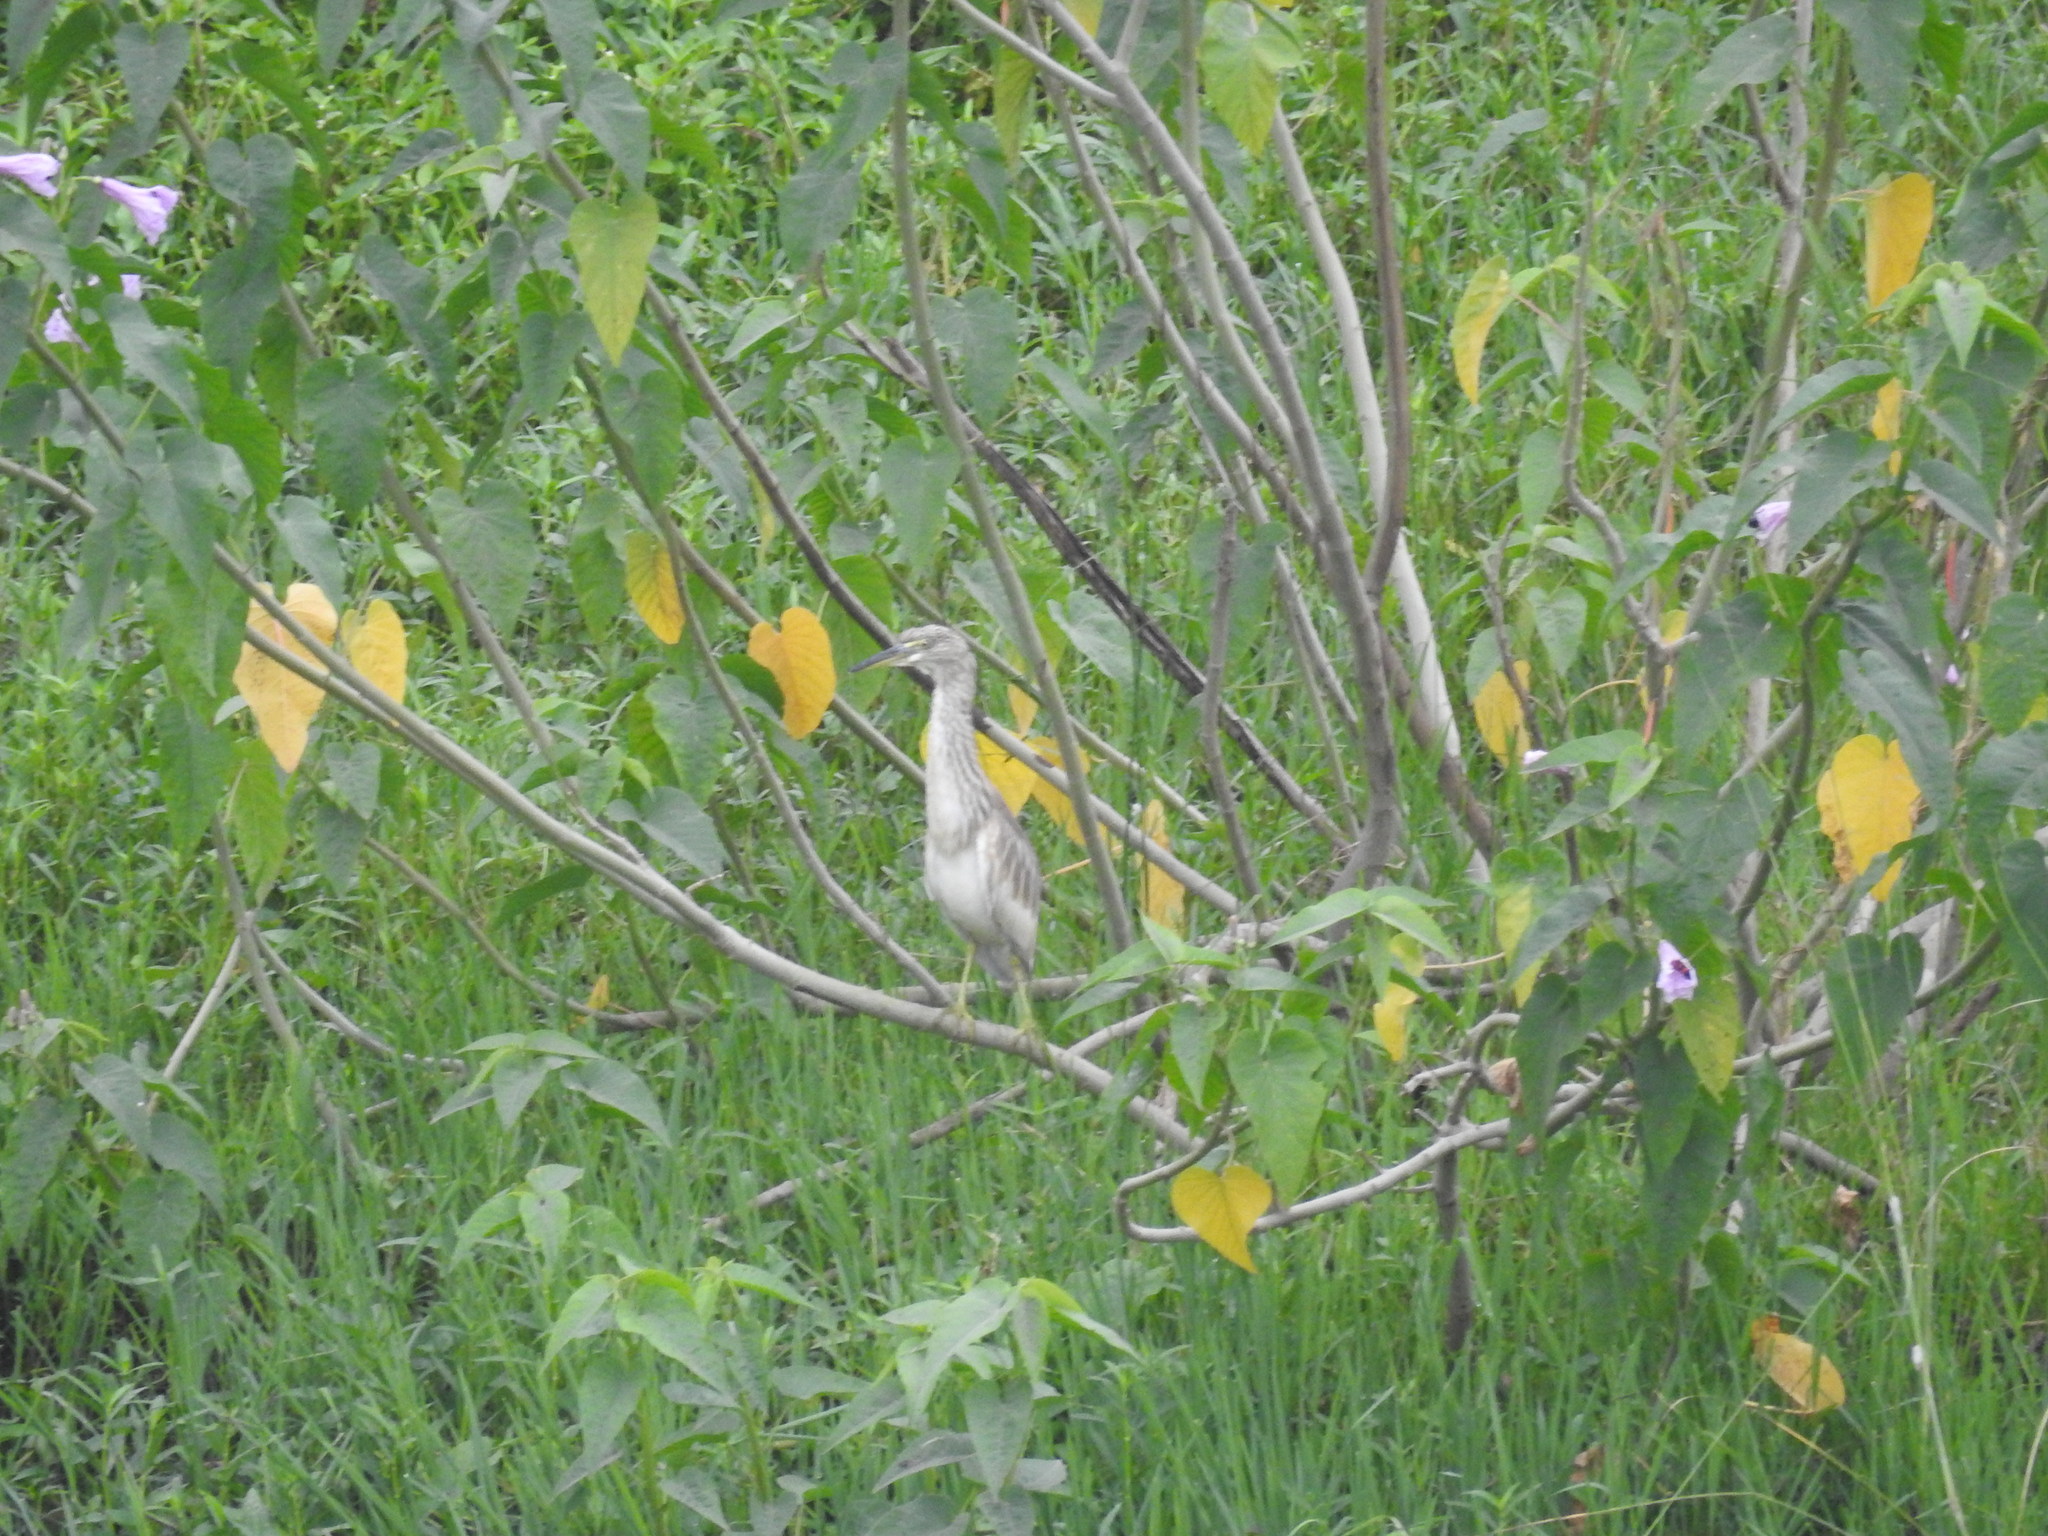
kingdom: Animalia
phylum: Chordata
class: Aves
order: Pelecaniformes
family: Ardeidae
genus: Ardeola
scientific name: Ardeola grayii
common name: Indian pond heron
